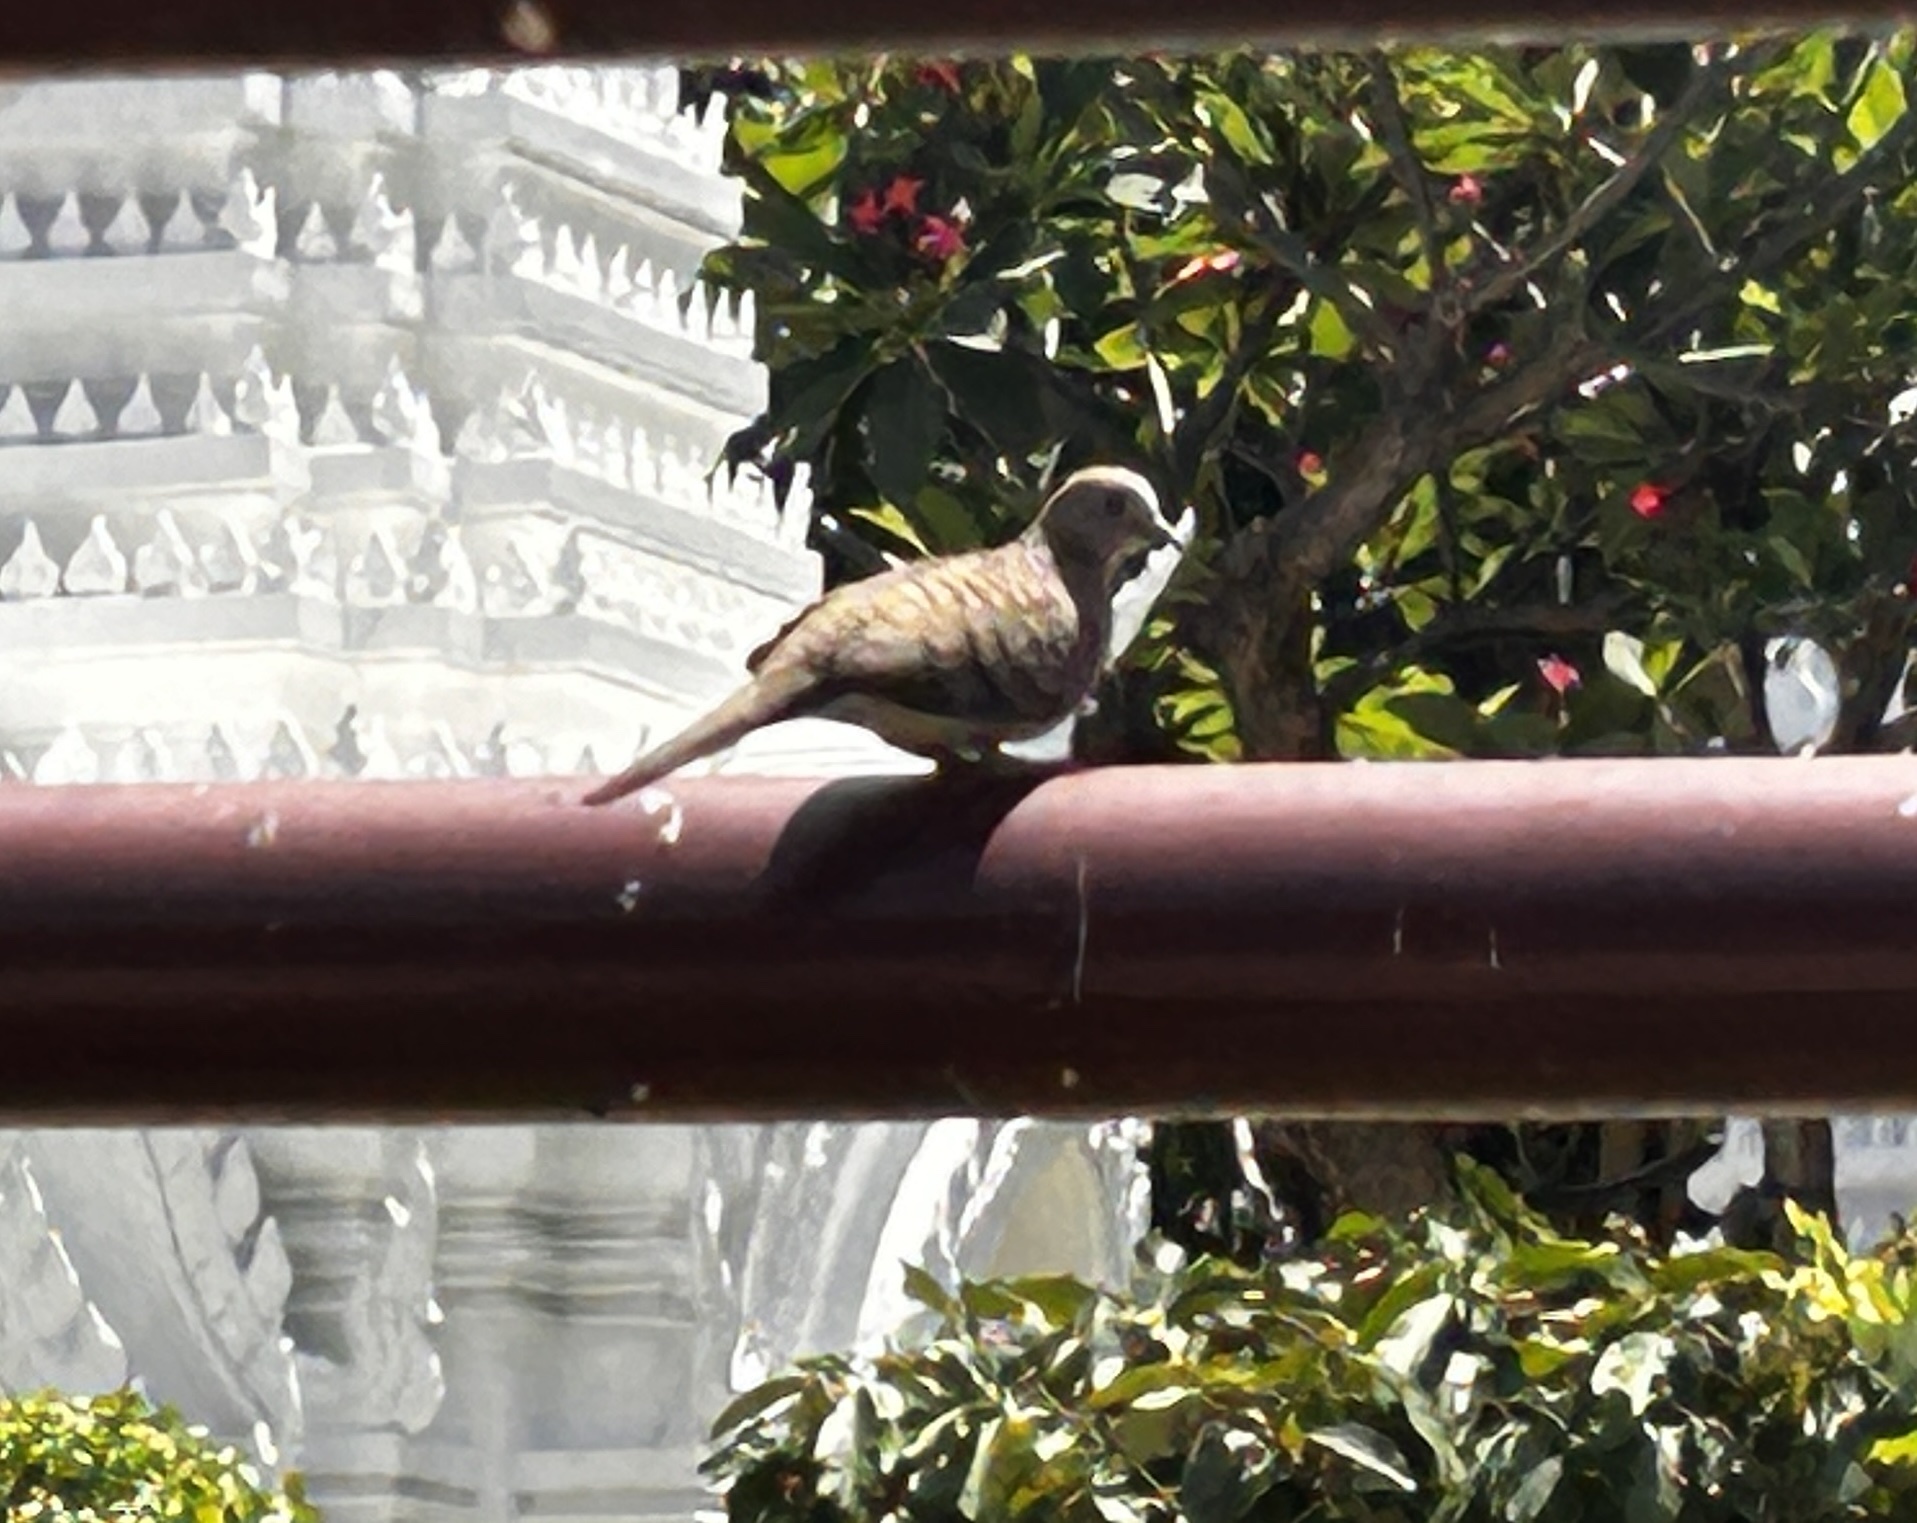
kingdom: Animalia
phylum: Chordata
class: Aves
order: Columbiformes
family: Columbidae
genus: Geopelia
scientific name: Geopelia striata
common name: Zebra dove
